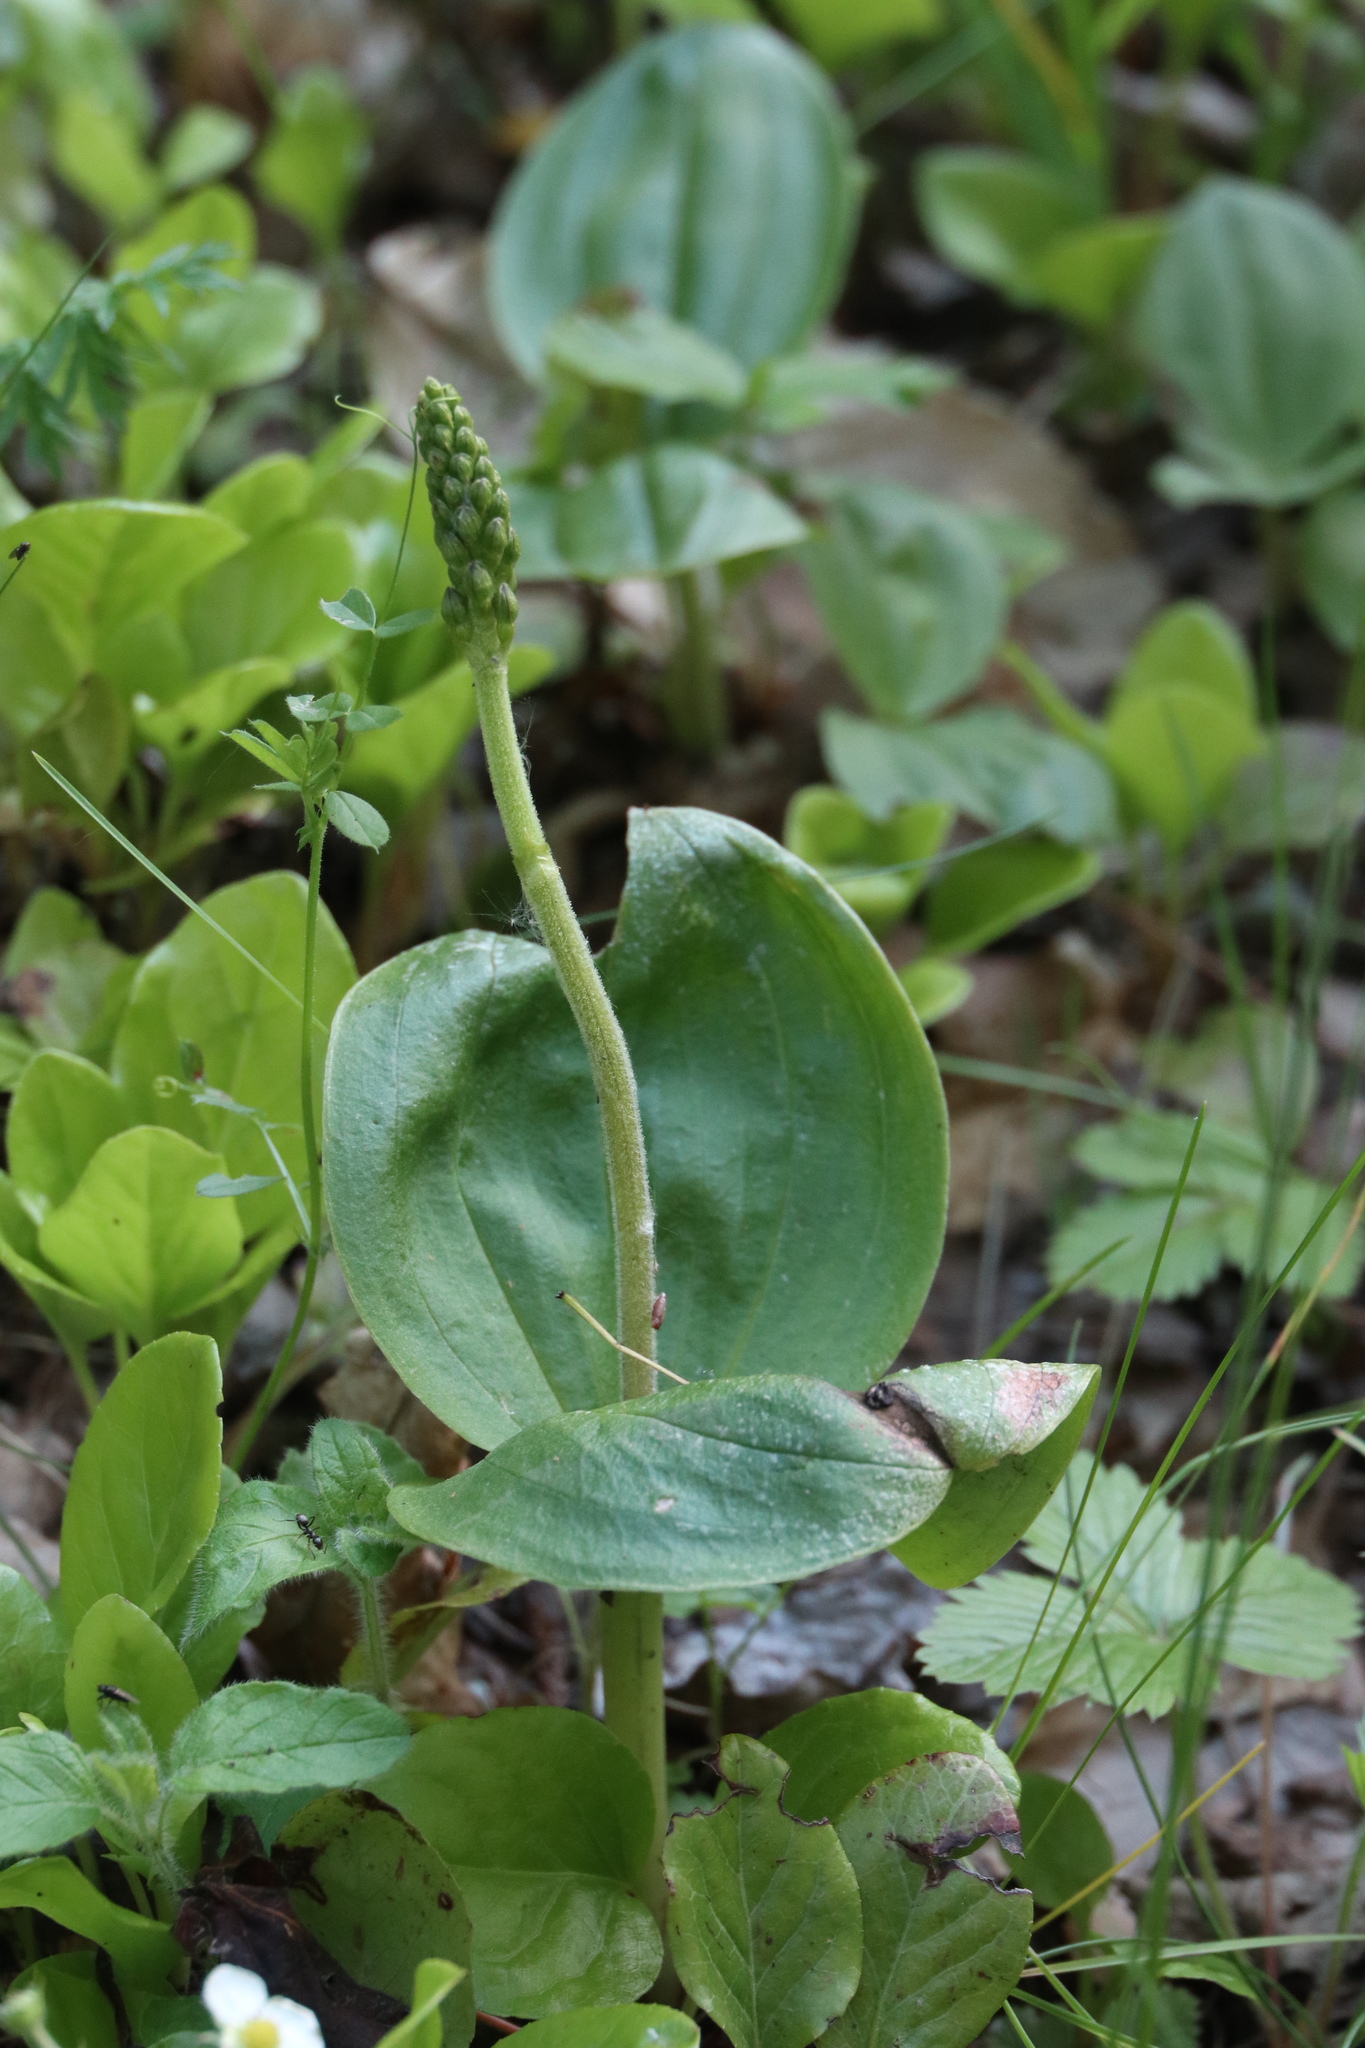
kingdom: Plantae
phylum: Tracheophyta
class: Liliopsida
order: Asparagales
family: Orchidaceae
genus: Neottia
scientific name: Neottia ovata
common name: Common twayblade
